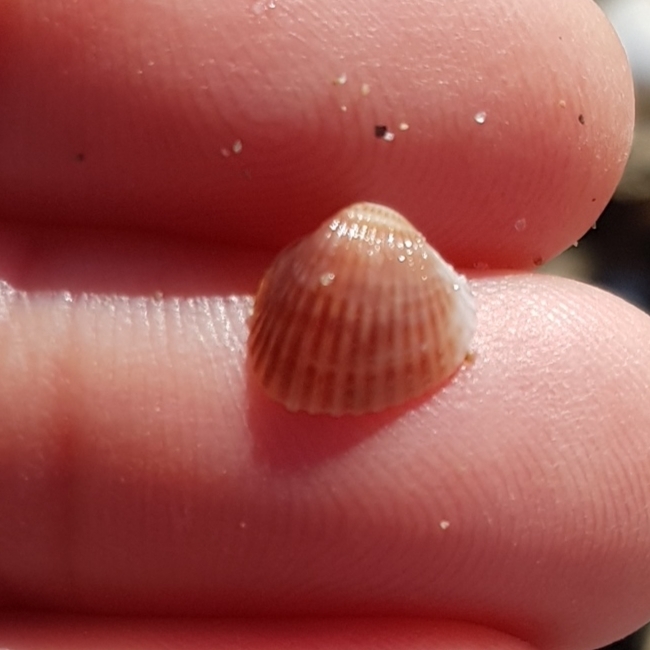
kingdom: Animalia
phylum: Mollusca
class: Bivalvia
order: Cardiida
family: Cardiidae
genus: Parvicardium
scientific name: Parvicardium exiguum
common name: Little cockle
